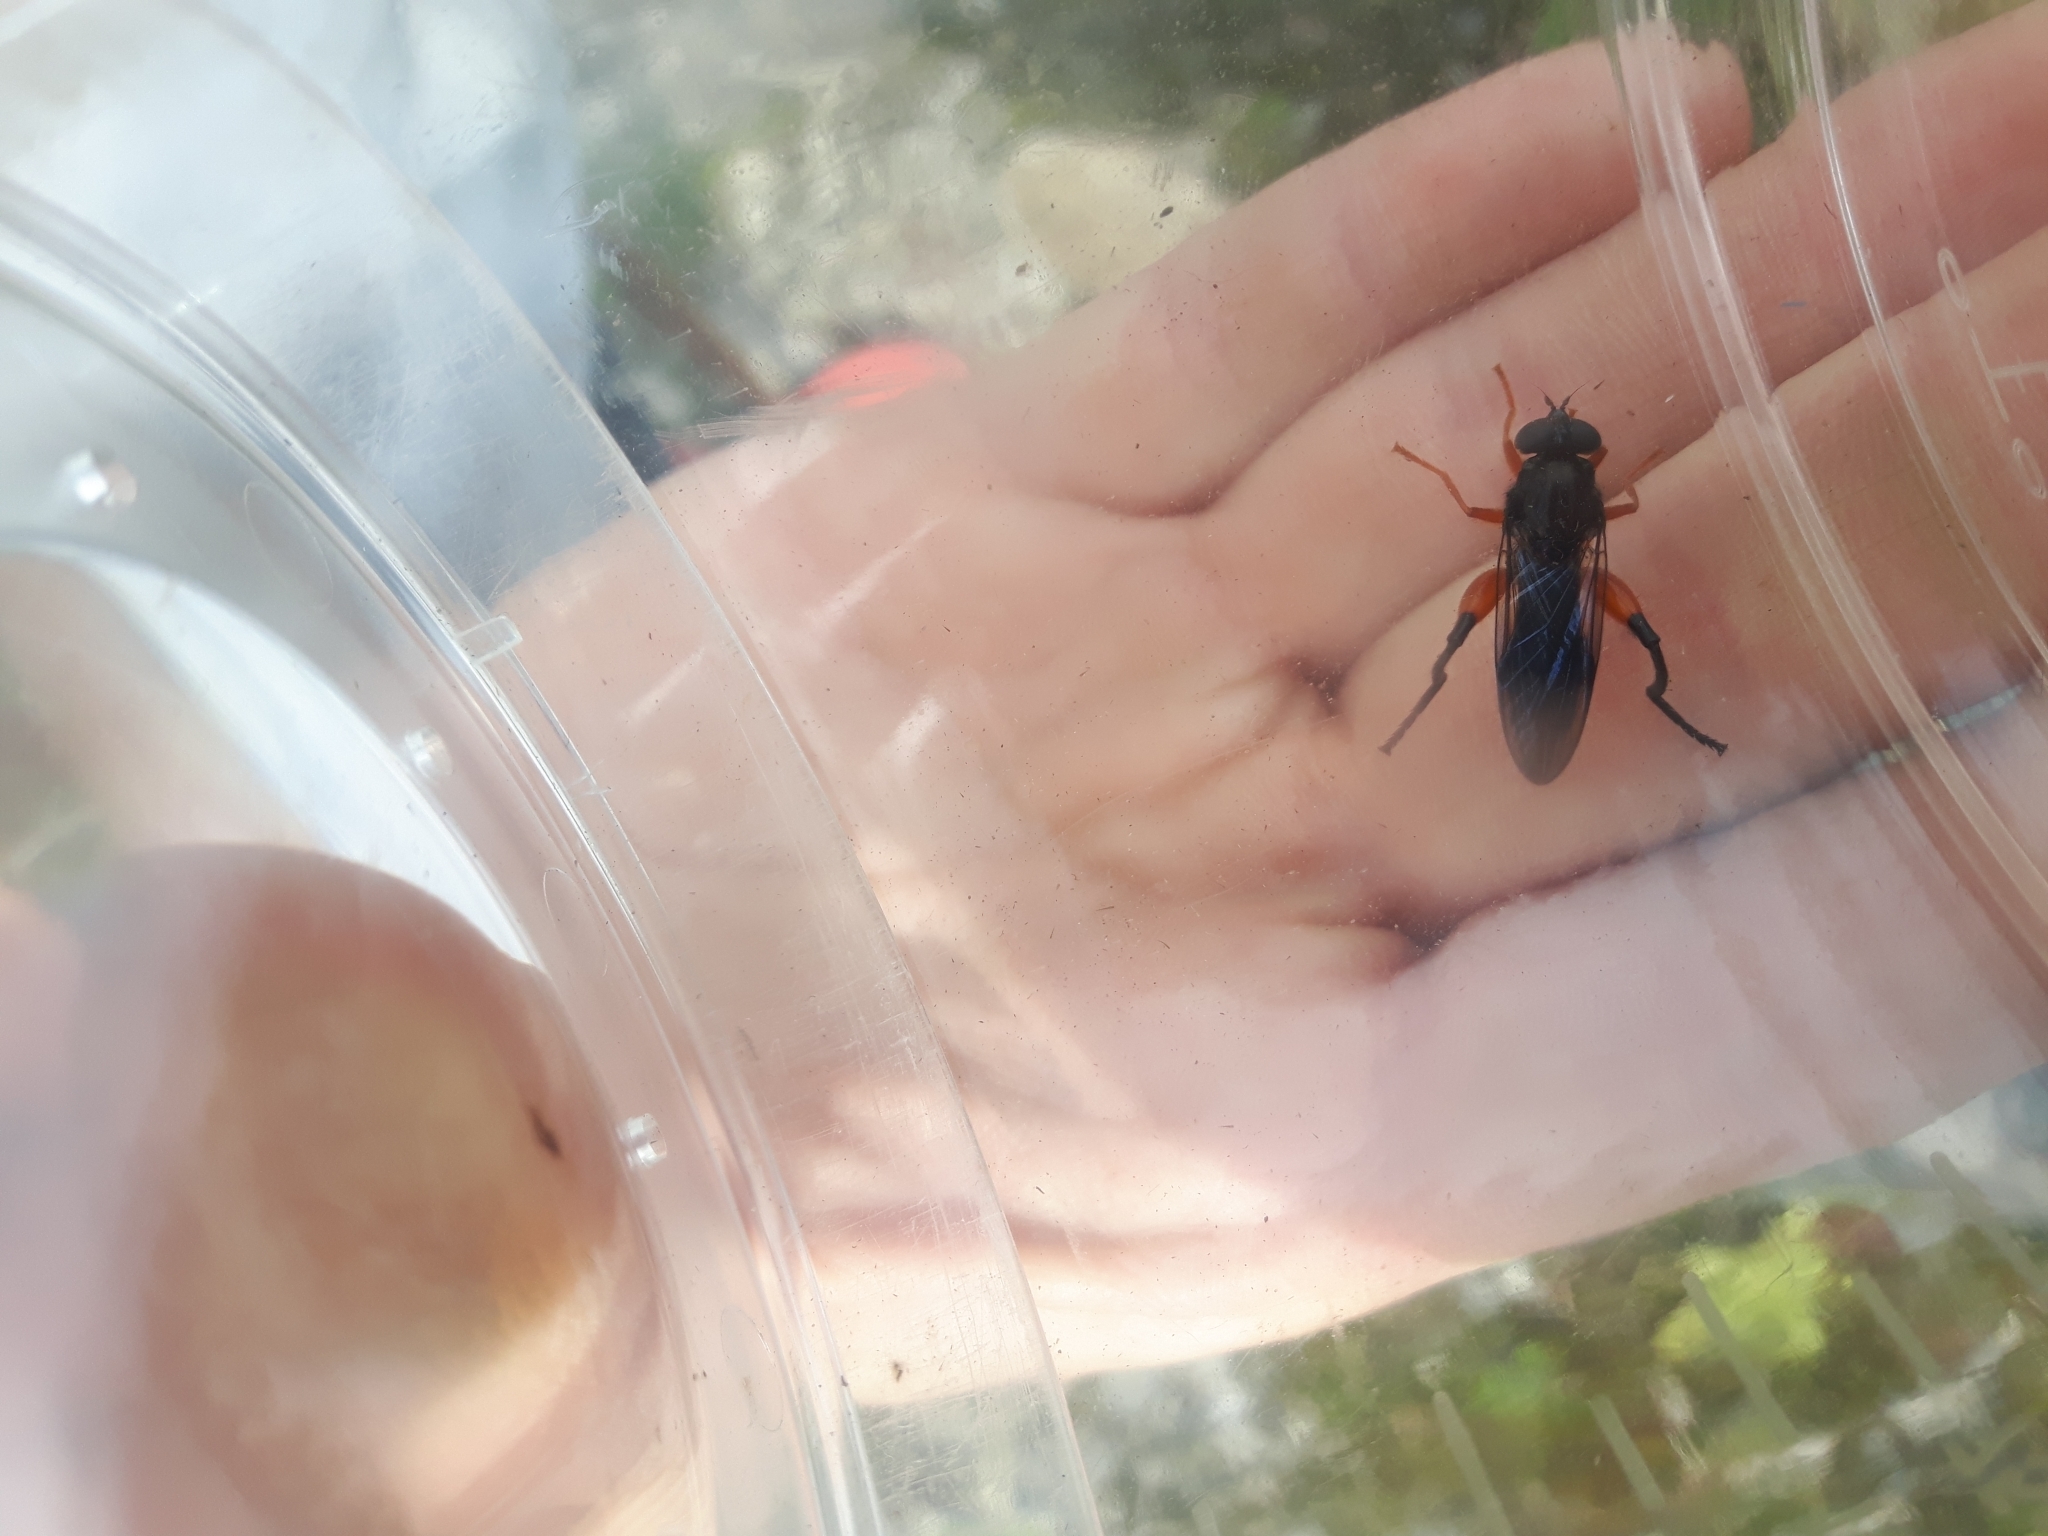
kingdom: Animalia
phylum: Arthropoda
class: Insecta
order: Diptera
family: Syrphidae
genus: Chalcosyrphus
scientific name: Chalcosyrphus
